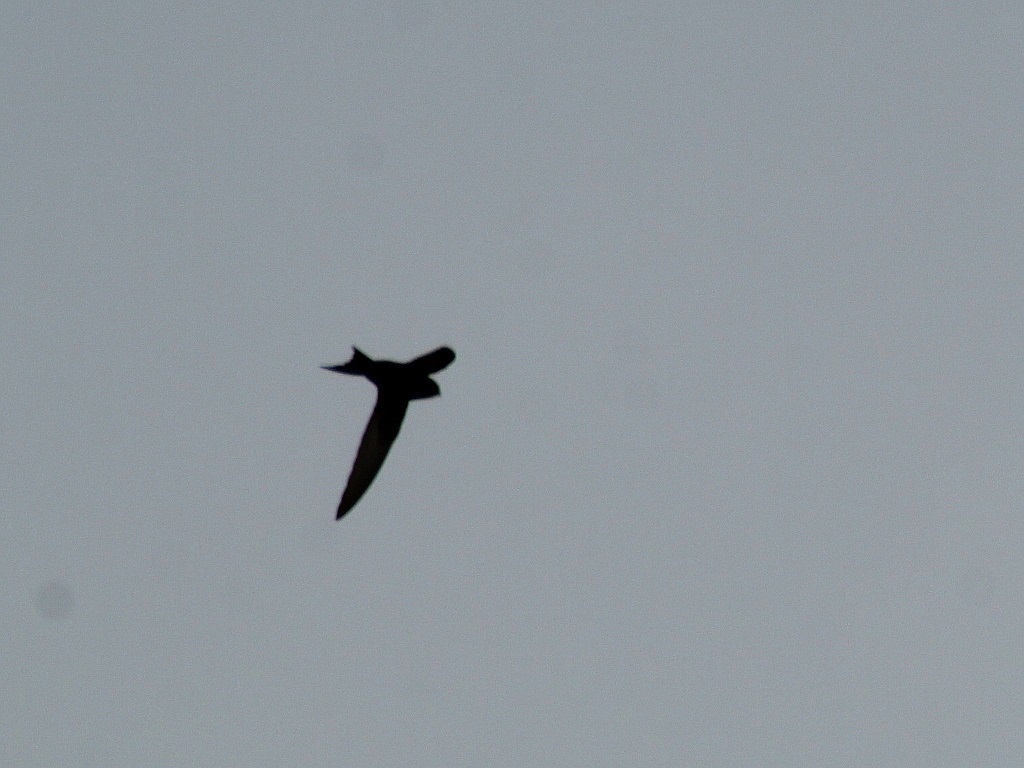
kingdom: Animalia
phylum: Chordata
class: Aves
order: Apodiformes
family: Apodidae
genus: Apus
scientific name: Apus apus
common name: Common swift
